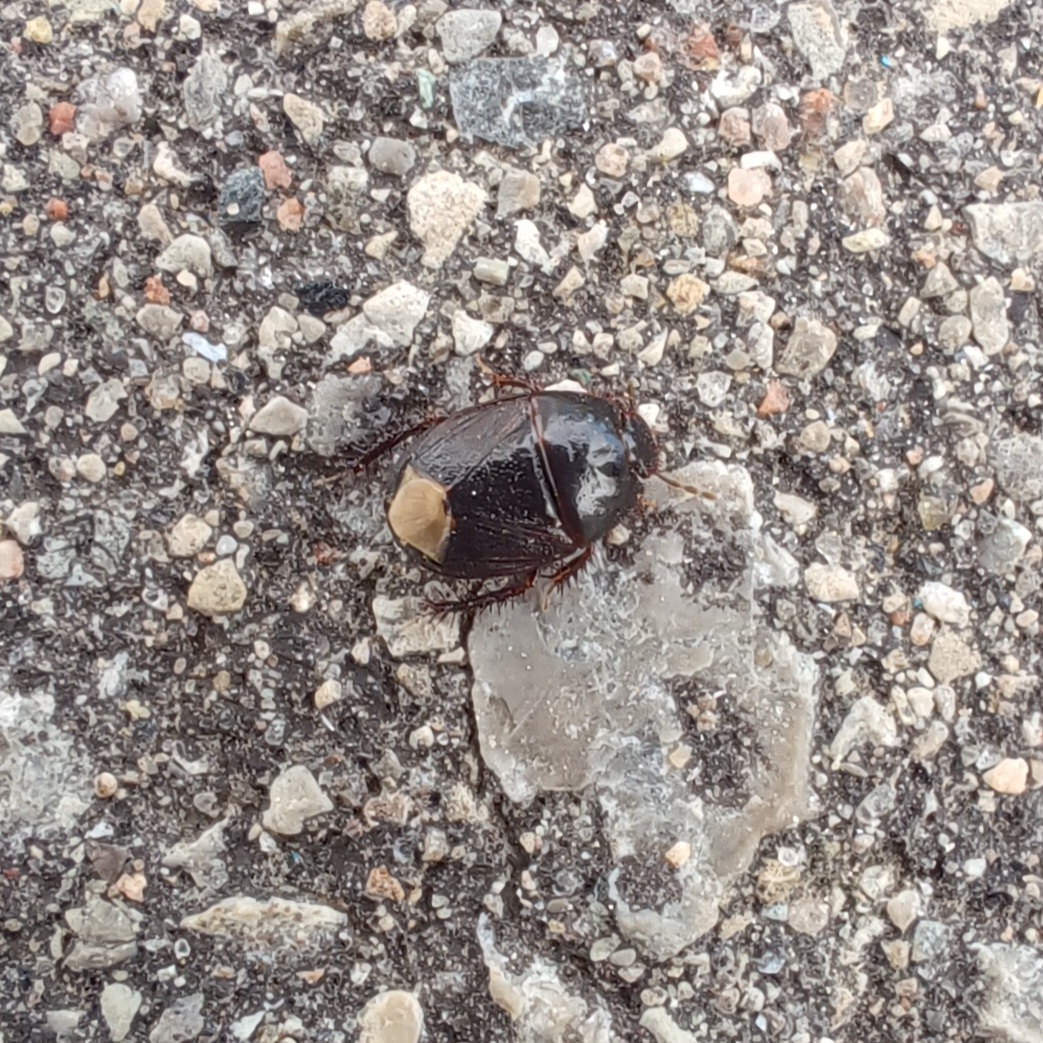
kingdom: Animalia
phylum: Arthropoda
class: Insecta
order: Hemiptera
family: Cydnidae
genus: Pangaeus
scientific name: Pangaeus bilineatus
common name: Burrower bug
